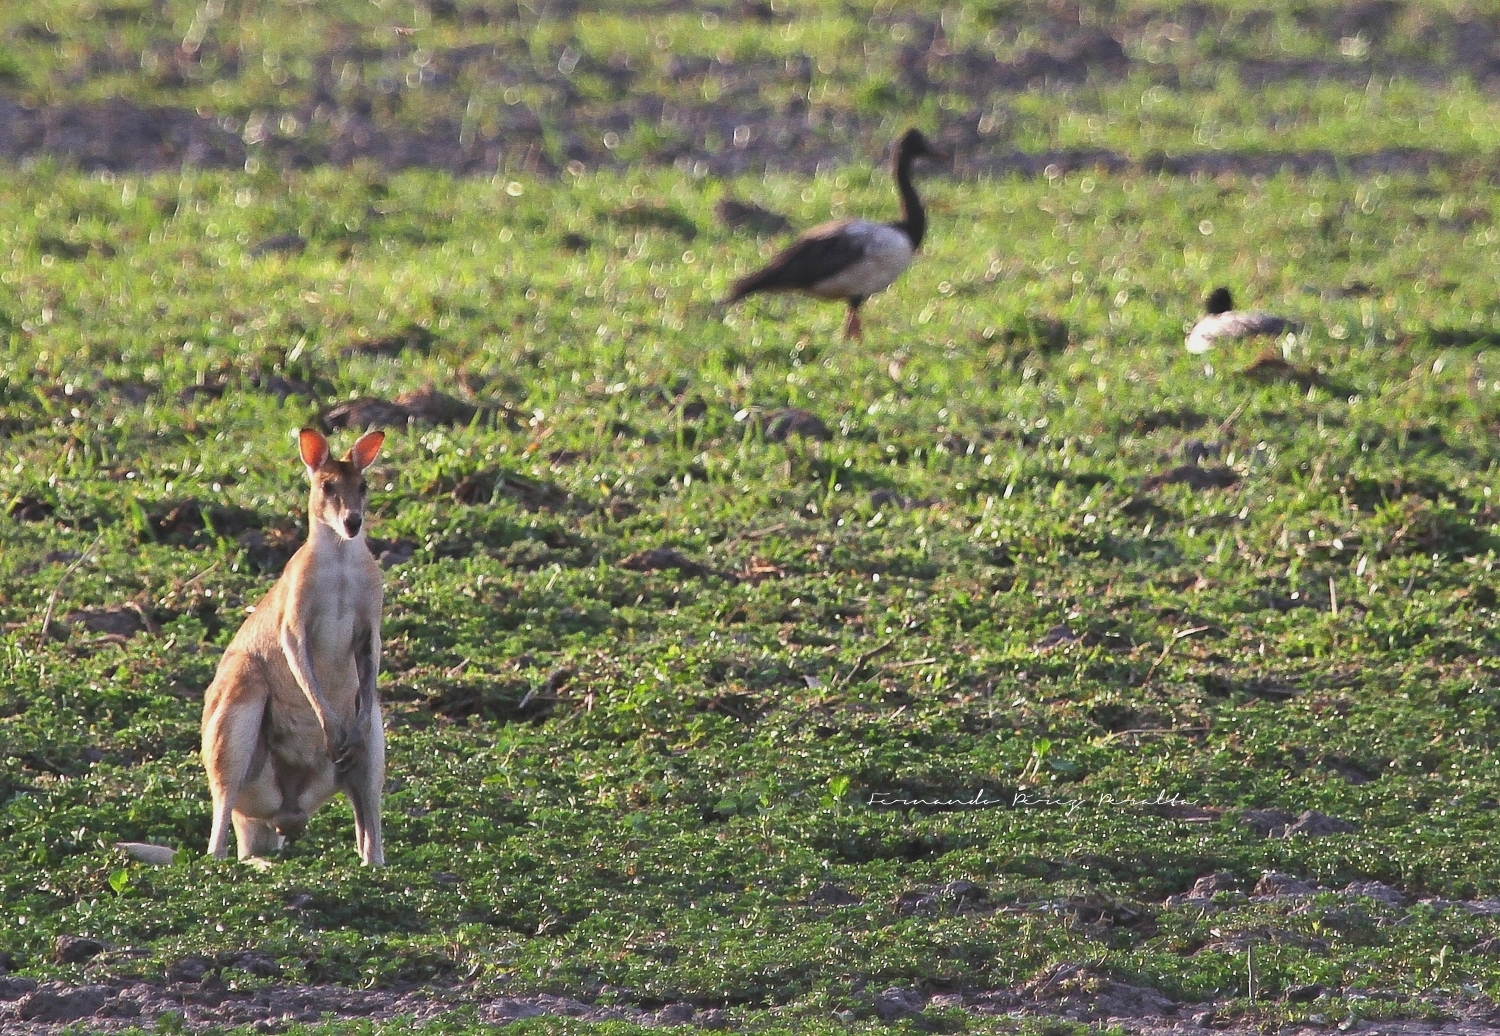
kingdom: Animalia
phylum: Chordata
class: Mammalia
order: Diprotodontia
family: Macropodidae
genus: Macropus
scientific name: Macropus agilis
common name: Agile wallaby
